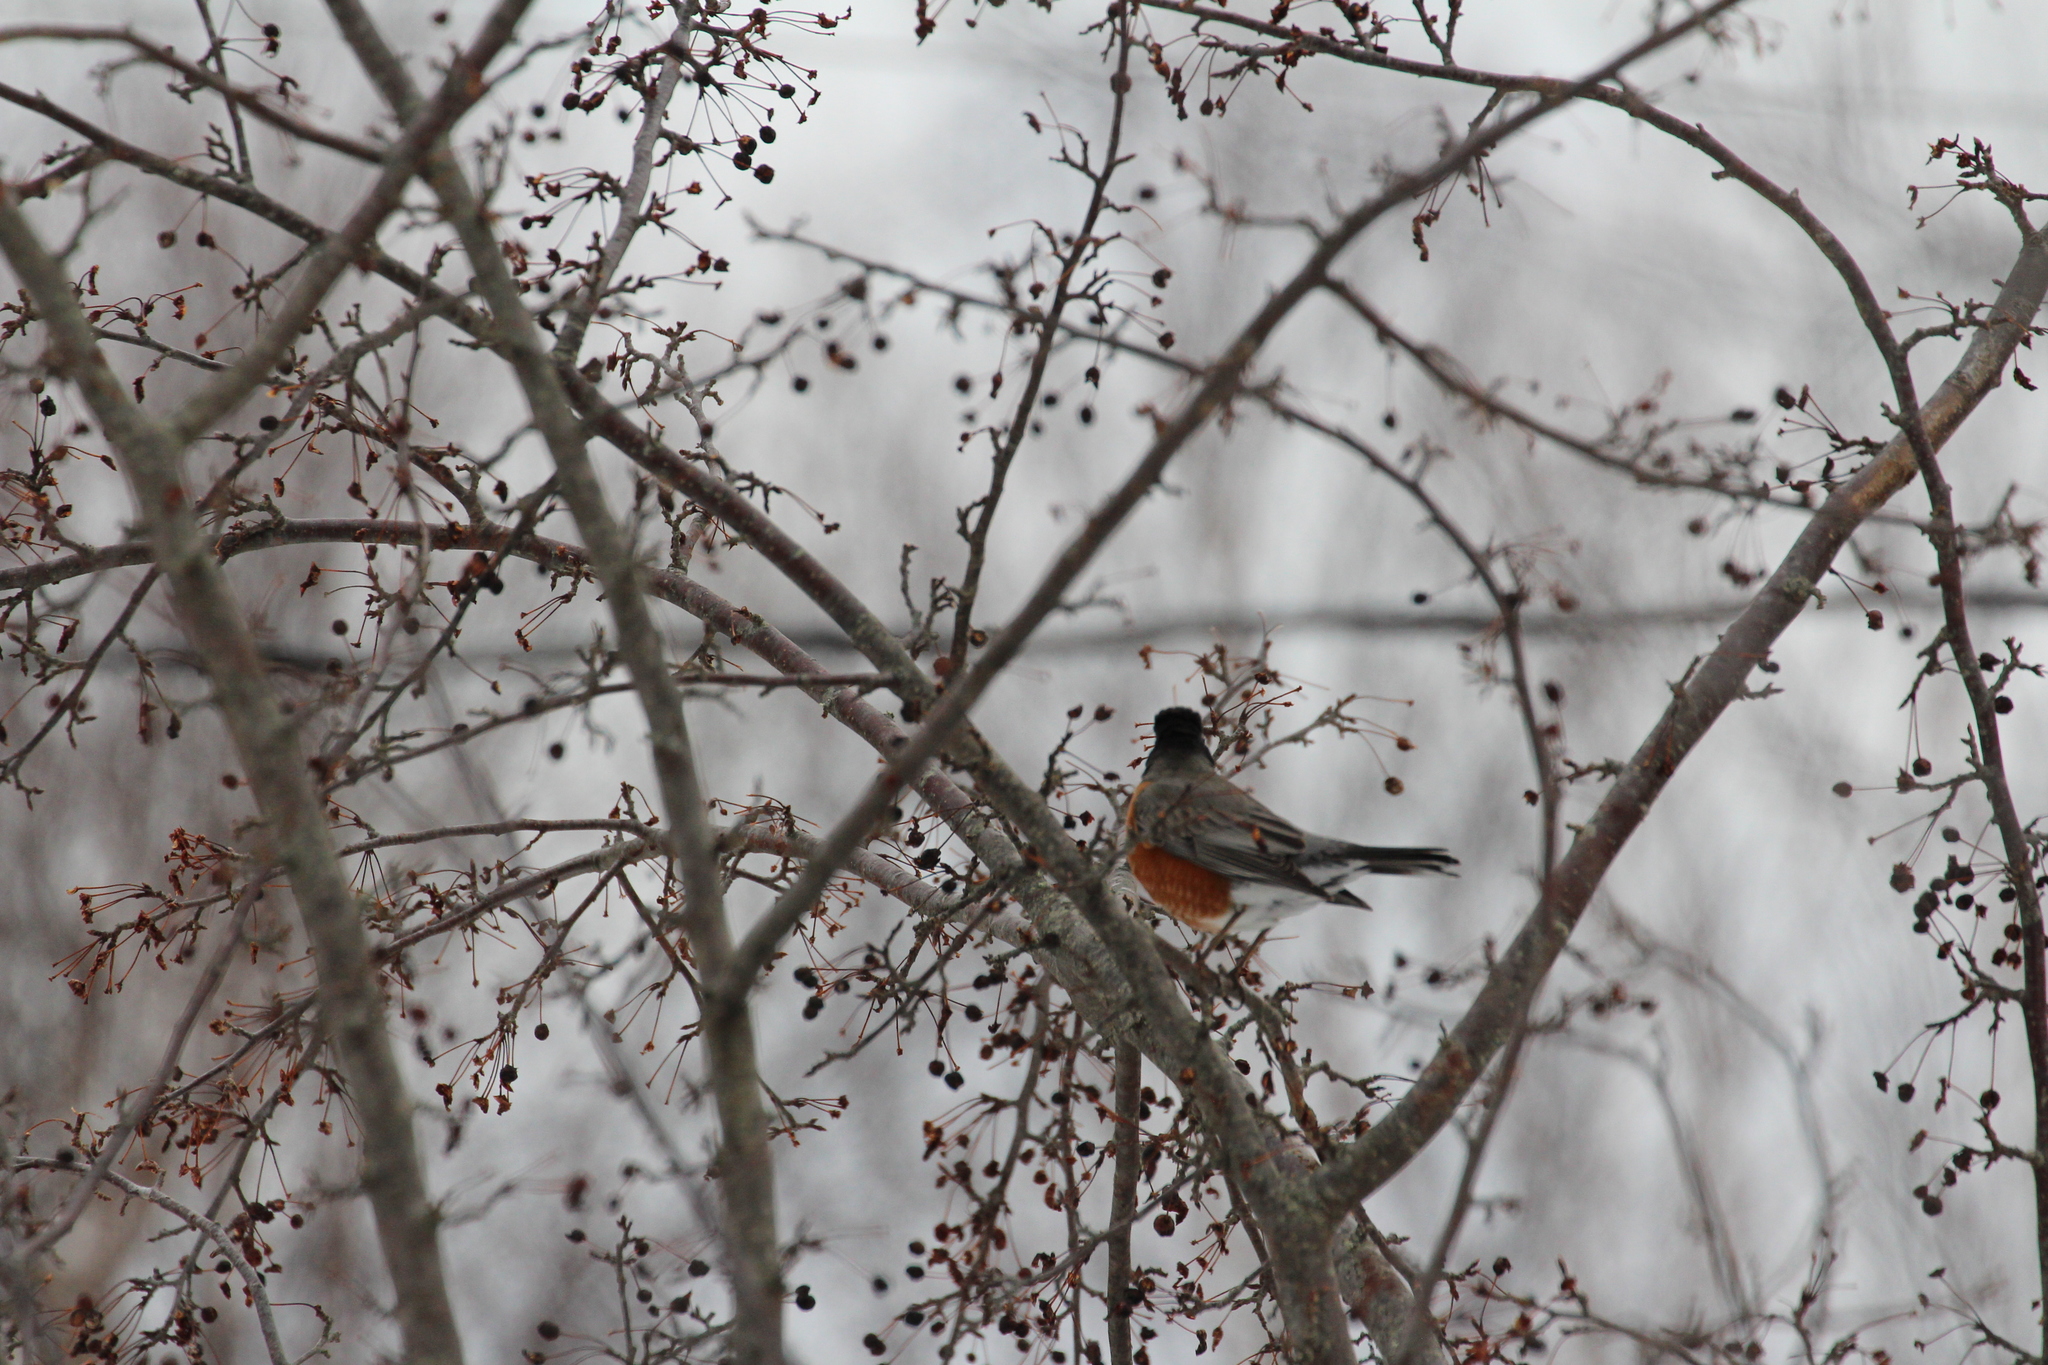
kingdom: Animalia
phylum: Chordata
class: Aves
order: Passeriformes
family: Turdidae
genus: Turdus
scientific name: Turdus migratorius
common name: American robin
